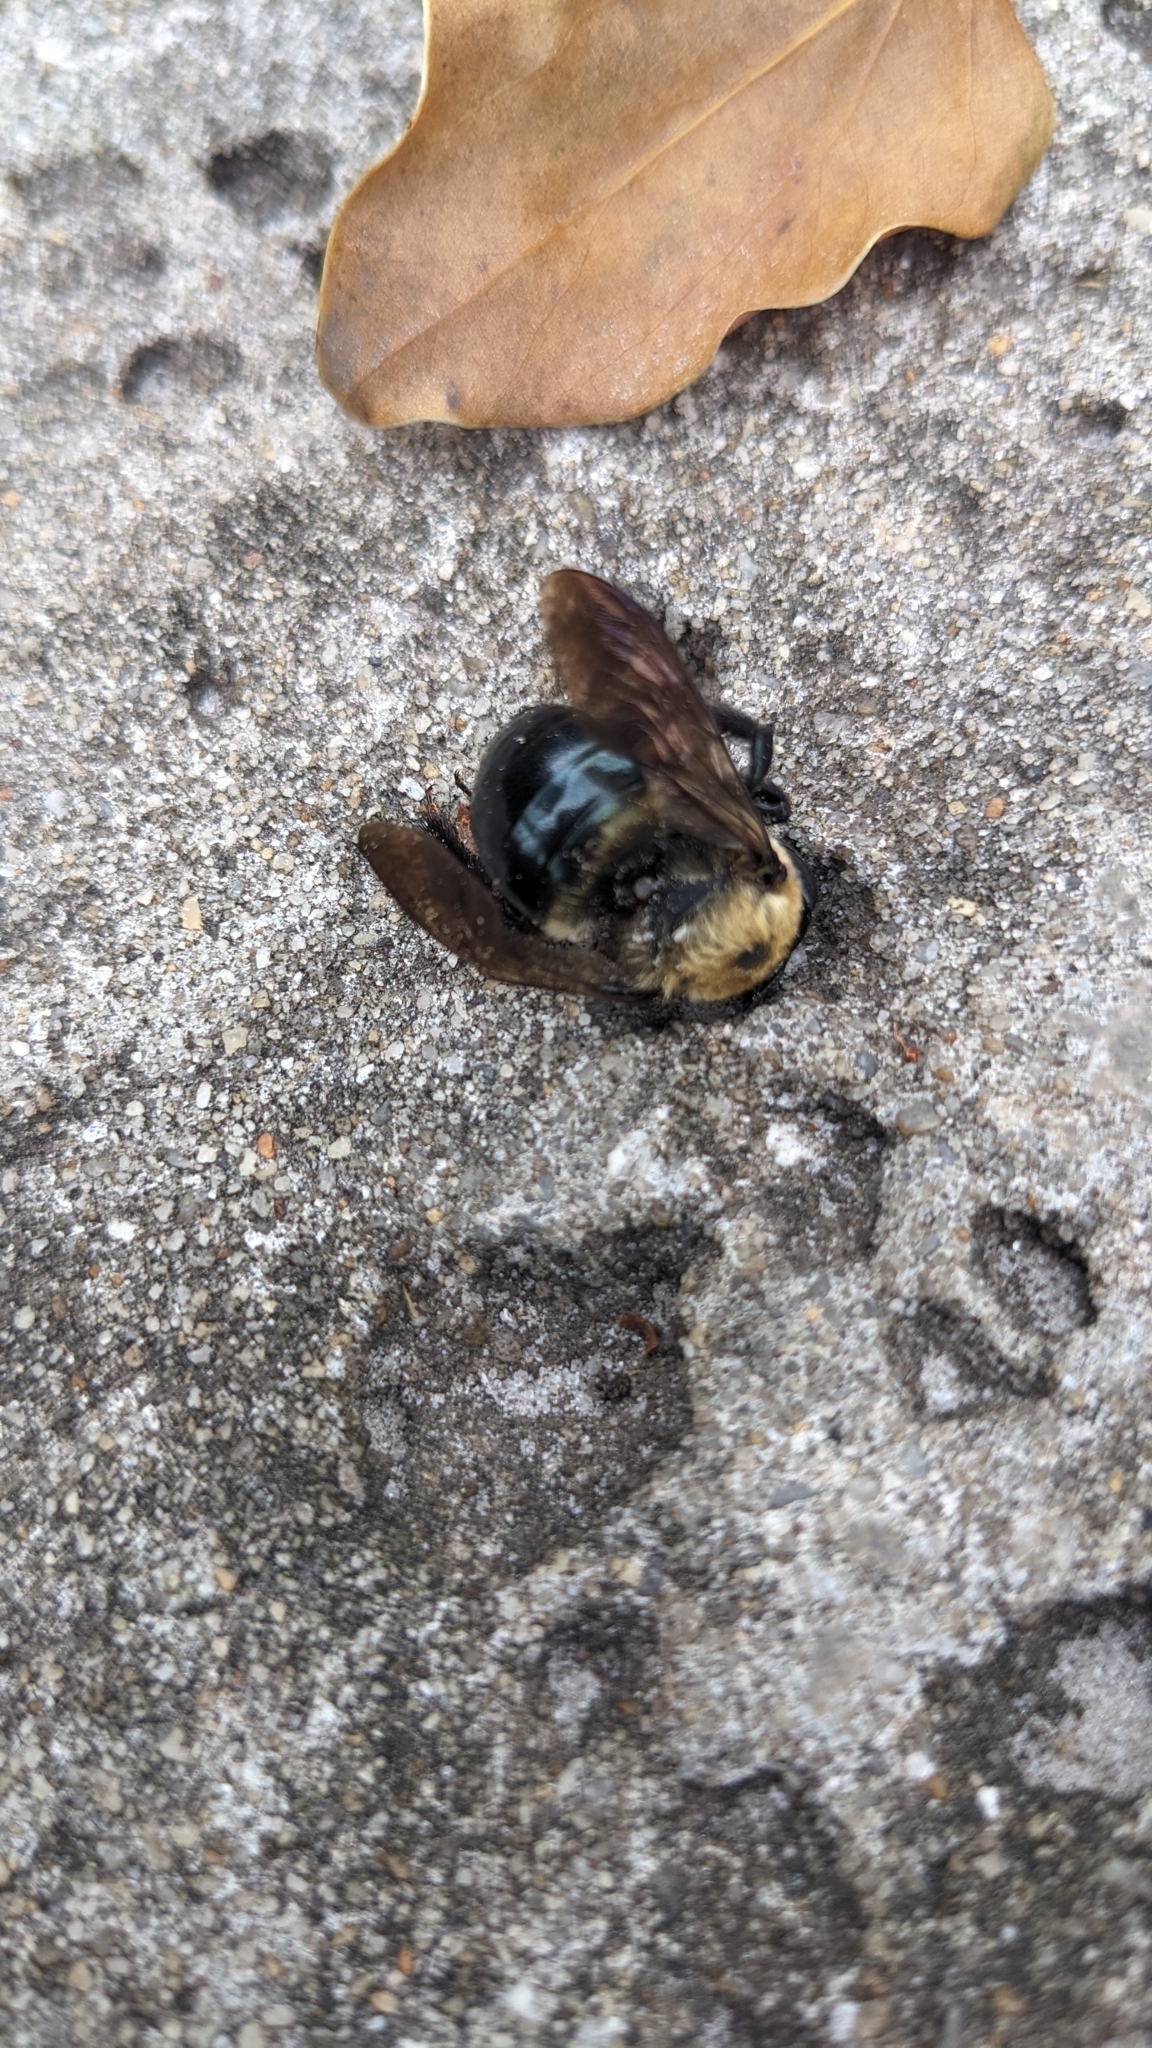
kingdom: Animalia
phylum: Arthropoda
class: Insecta
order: Hymenoptera
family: Apidae
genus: Xylocopa
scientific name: Xylocopa virginica
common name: Carpenter bee
